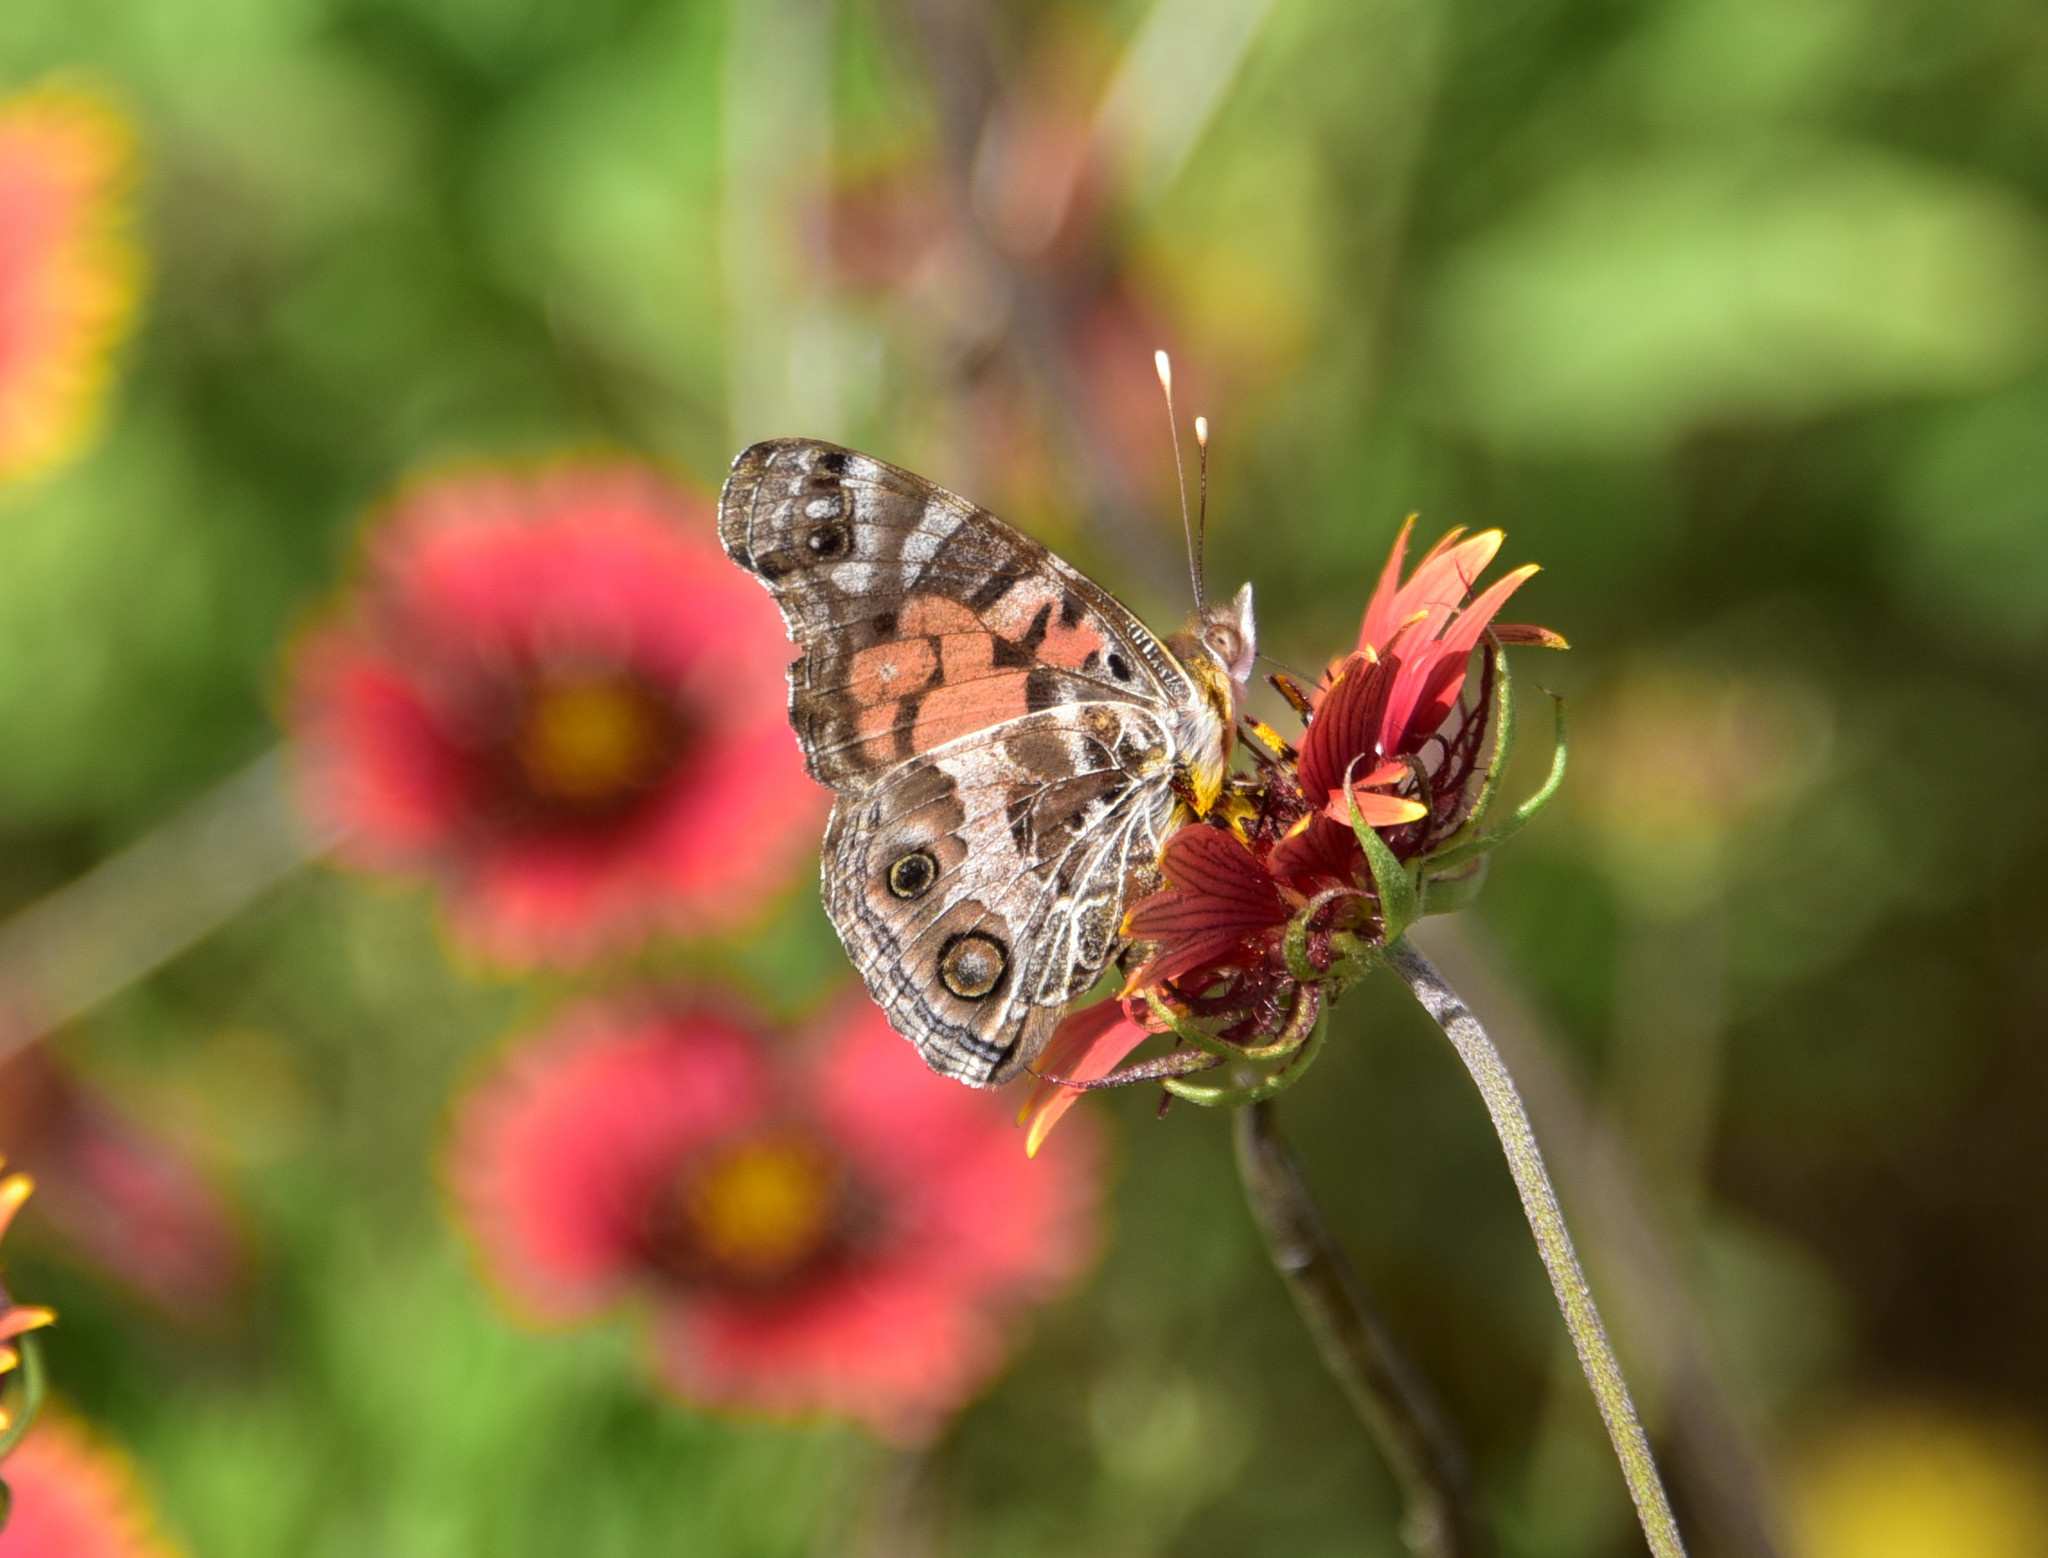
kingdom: Animalia
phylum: Arthropoda
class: Insecta
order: Lepidoptera
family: Nymphalidae
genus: Vanessa
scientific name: Vanessa virginiensis
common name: American lady
